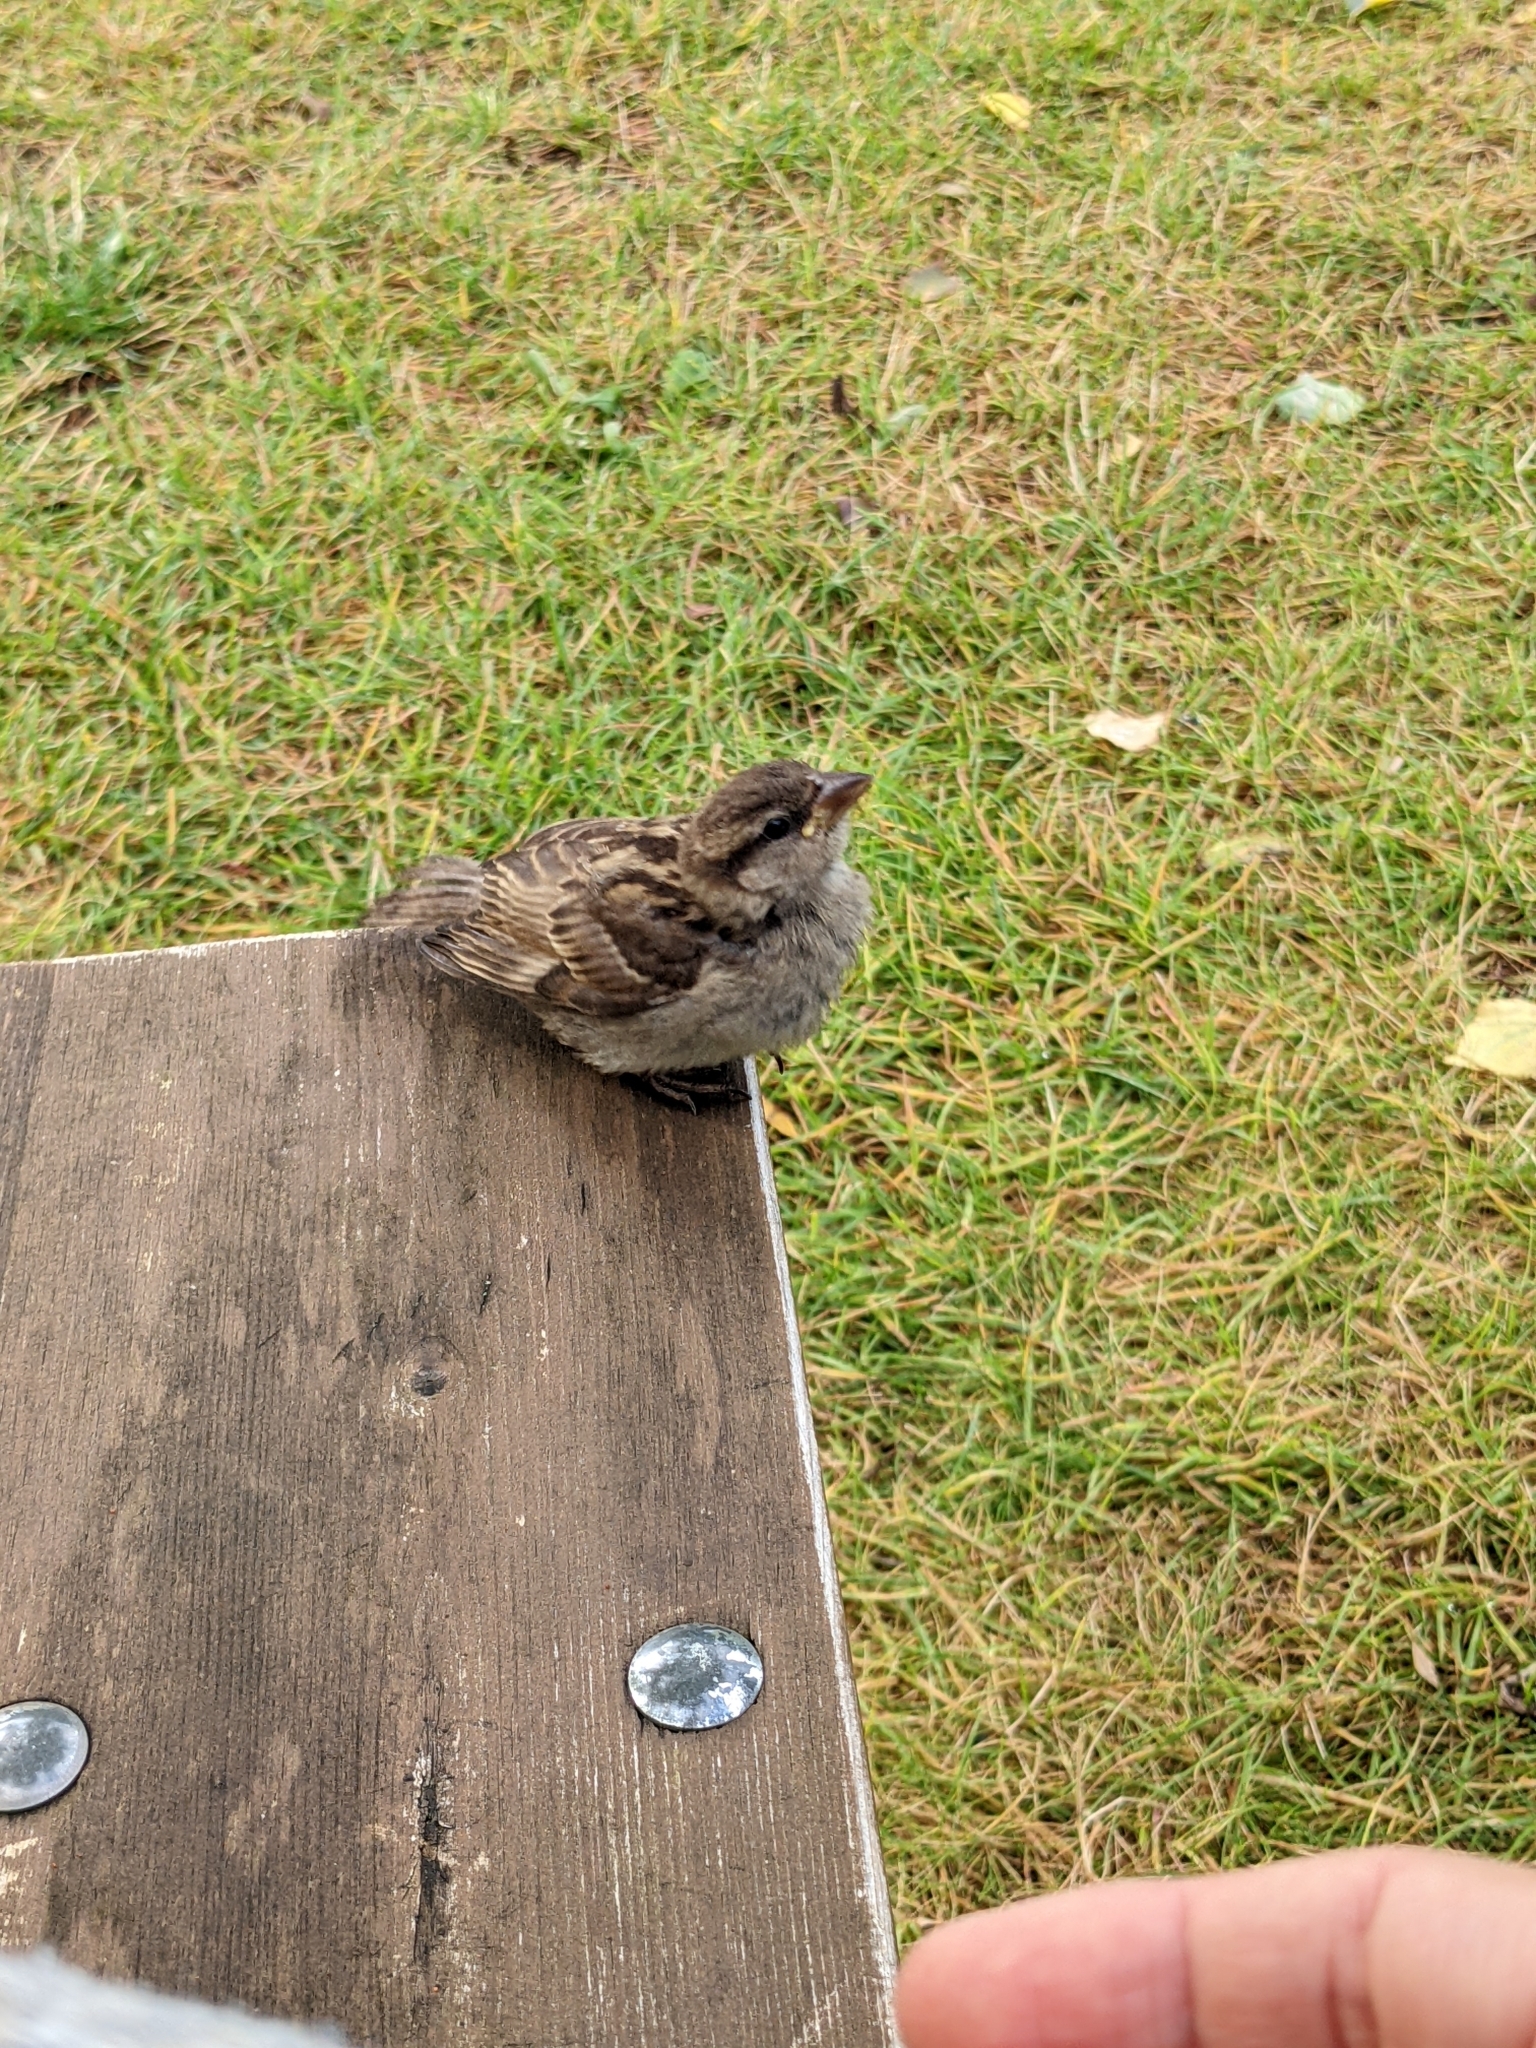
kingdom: Animalia
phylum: Chordata
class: Aves
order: Passeriformes
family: Passeridae
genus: Passer
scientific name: Passer domesticus
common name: House sparrow
